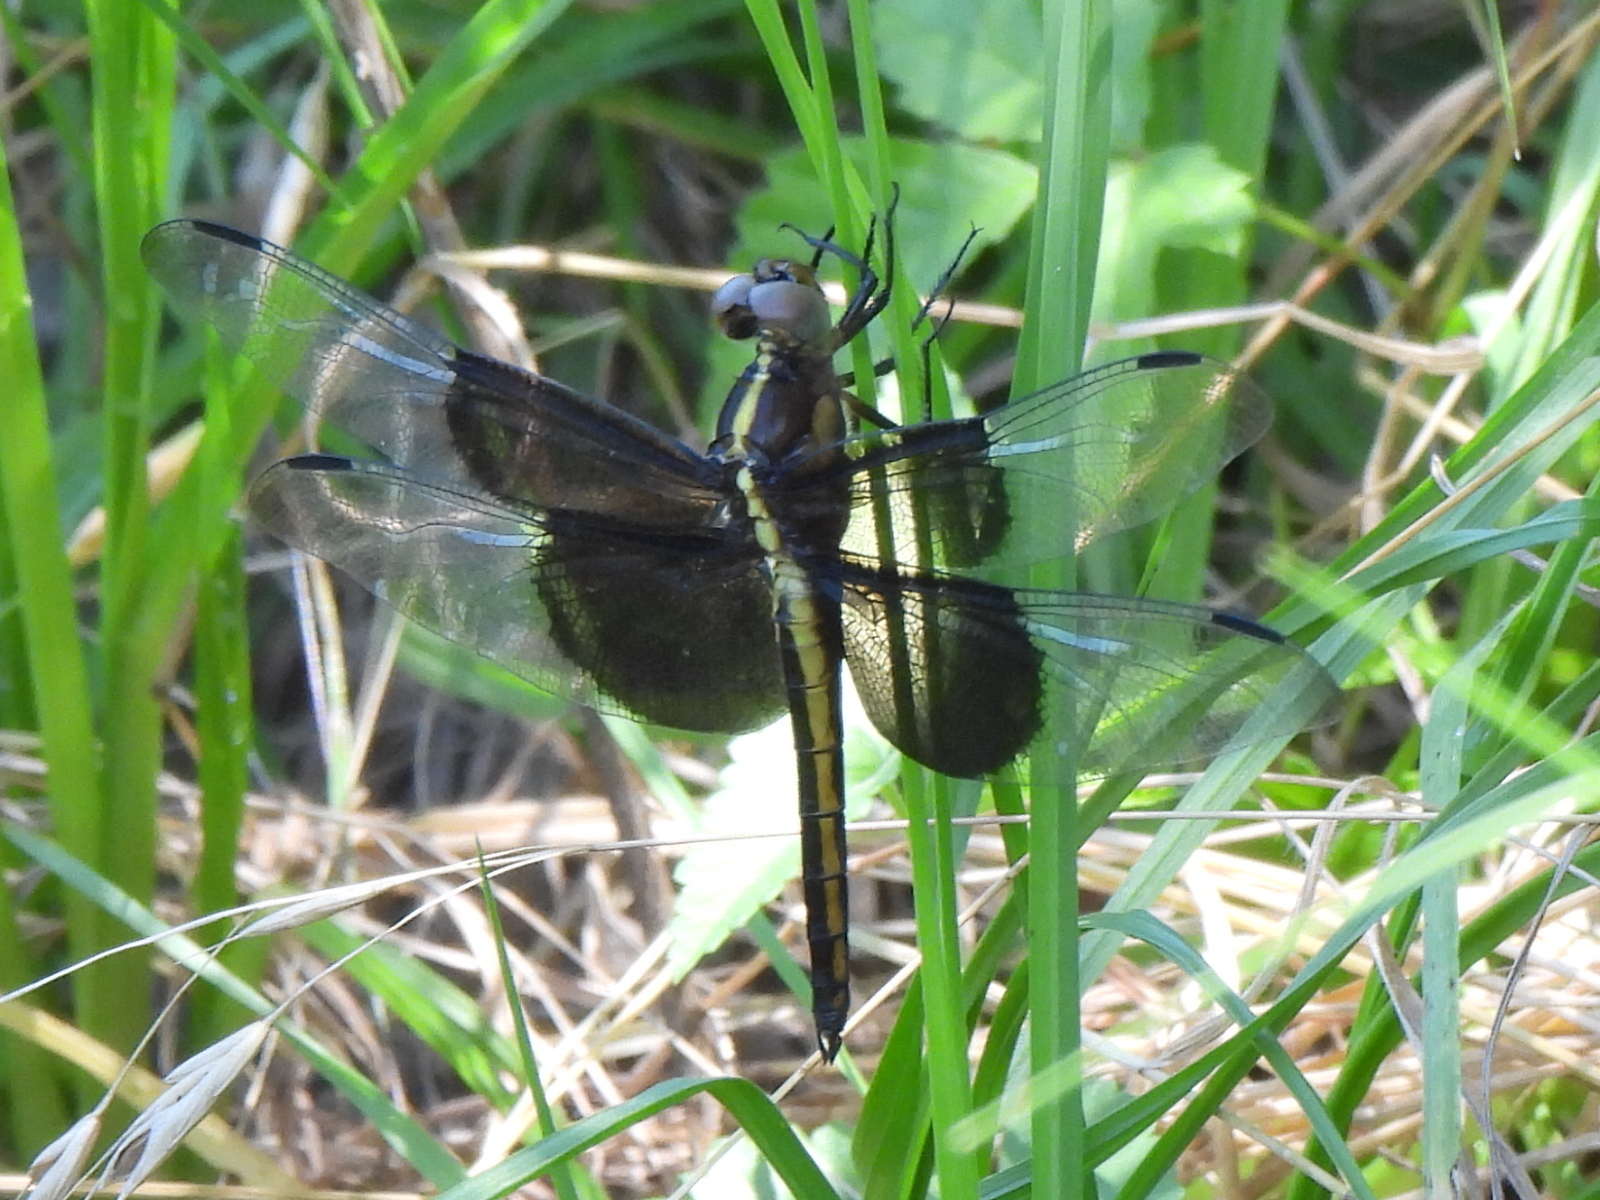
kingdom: Animalia
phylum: Arthropoda
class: Insecta
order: Odonata
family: Libellulidae
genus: Libellula
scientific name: Libellula luctuosa
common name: Widow skimmer
